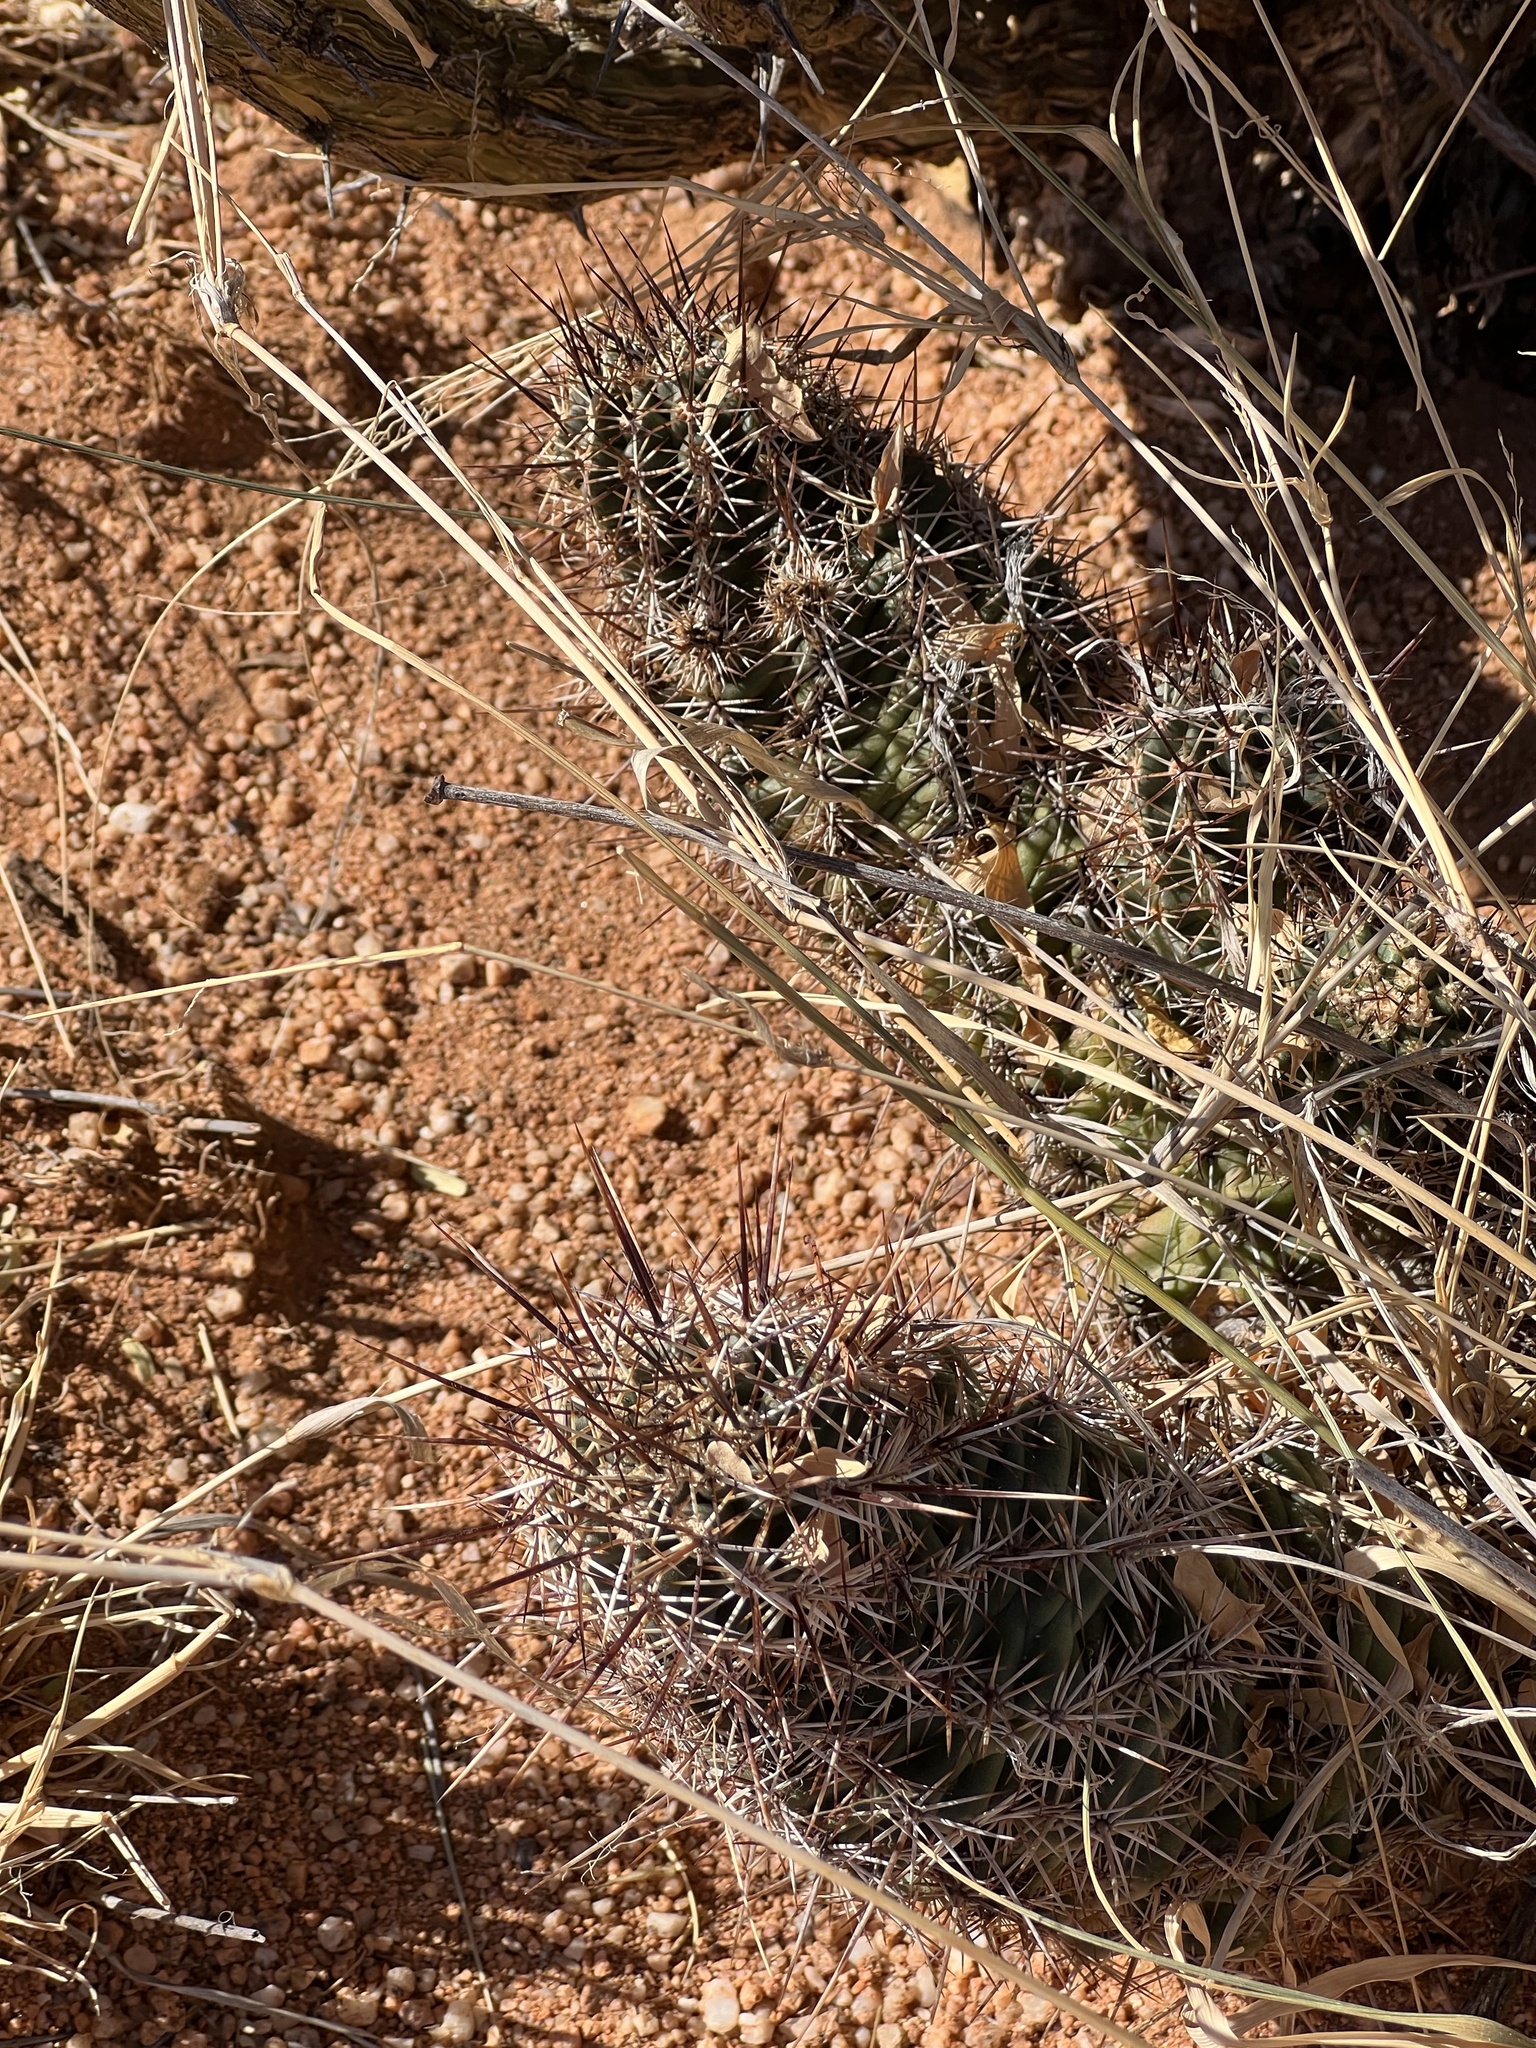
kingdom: Plantae
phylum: Tracheophyta
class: Magnoliopsida
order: Caryophyllales
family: Cactaceae
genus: Echinocereus
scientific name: Echinocereus fasciculatus
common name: Bundle hedgehog
